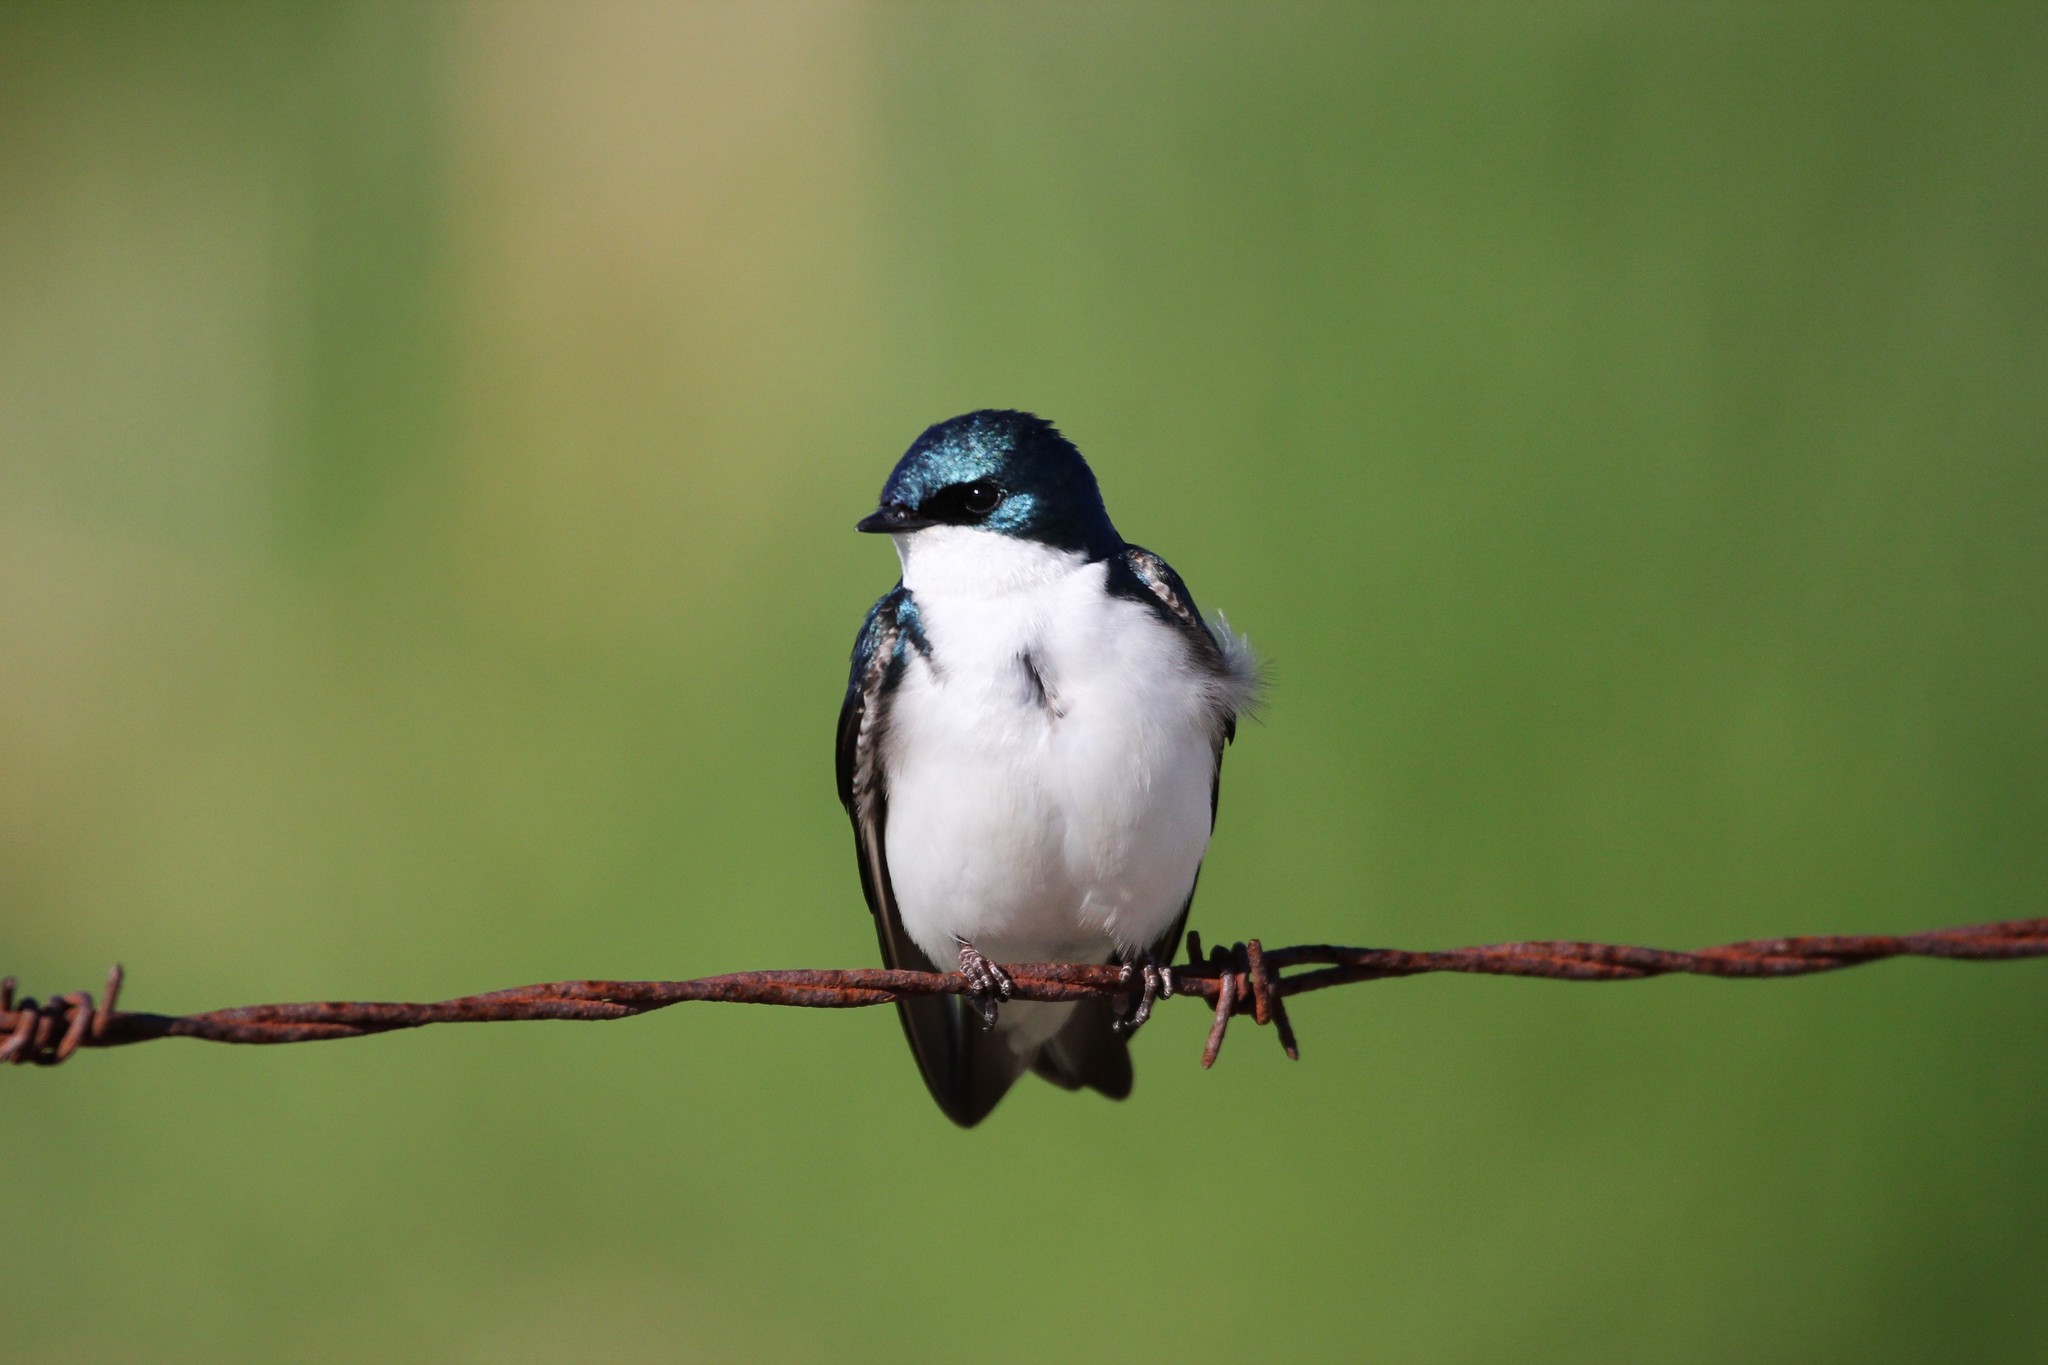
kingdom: Animalia
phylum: Chordata
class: Aves
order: Passeriformes
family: Hirundinidae
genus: Tachycineta
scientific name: Tachycineta bicolor
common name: Tree swallow
